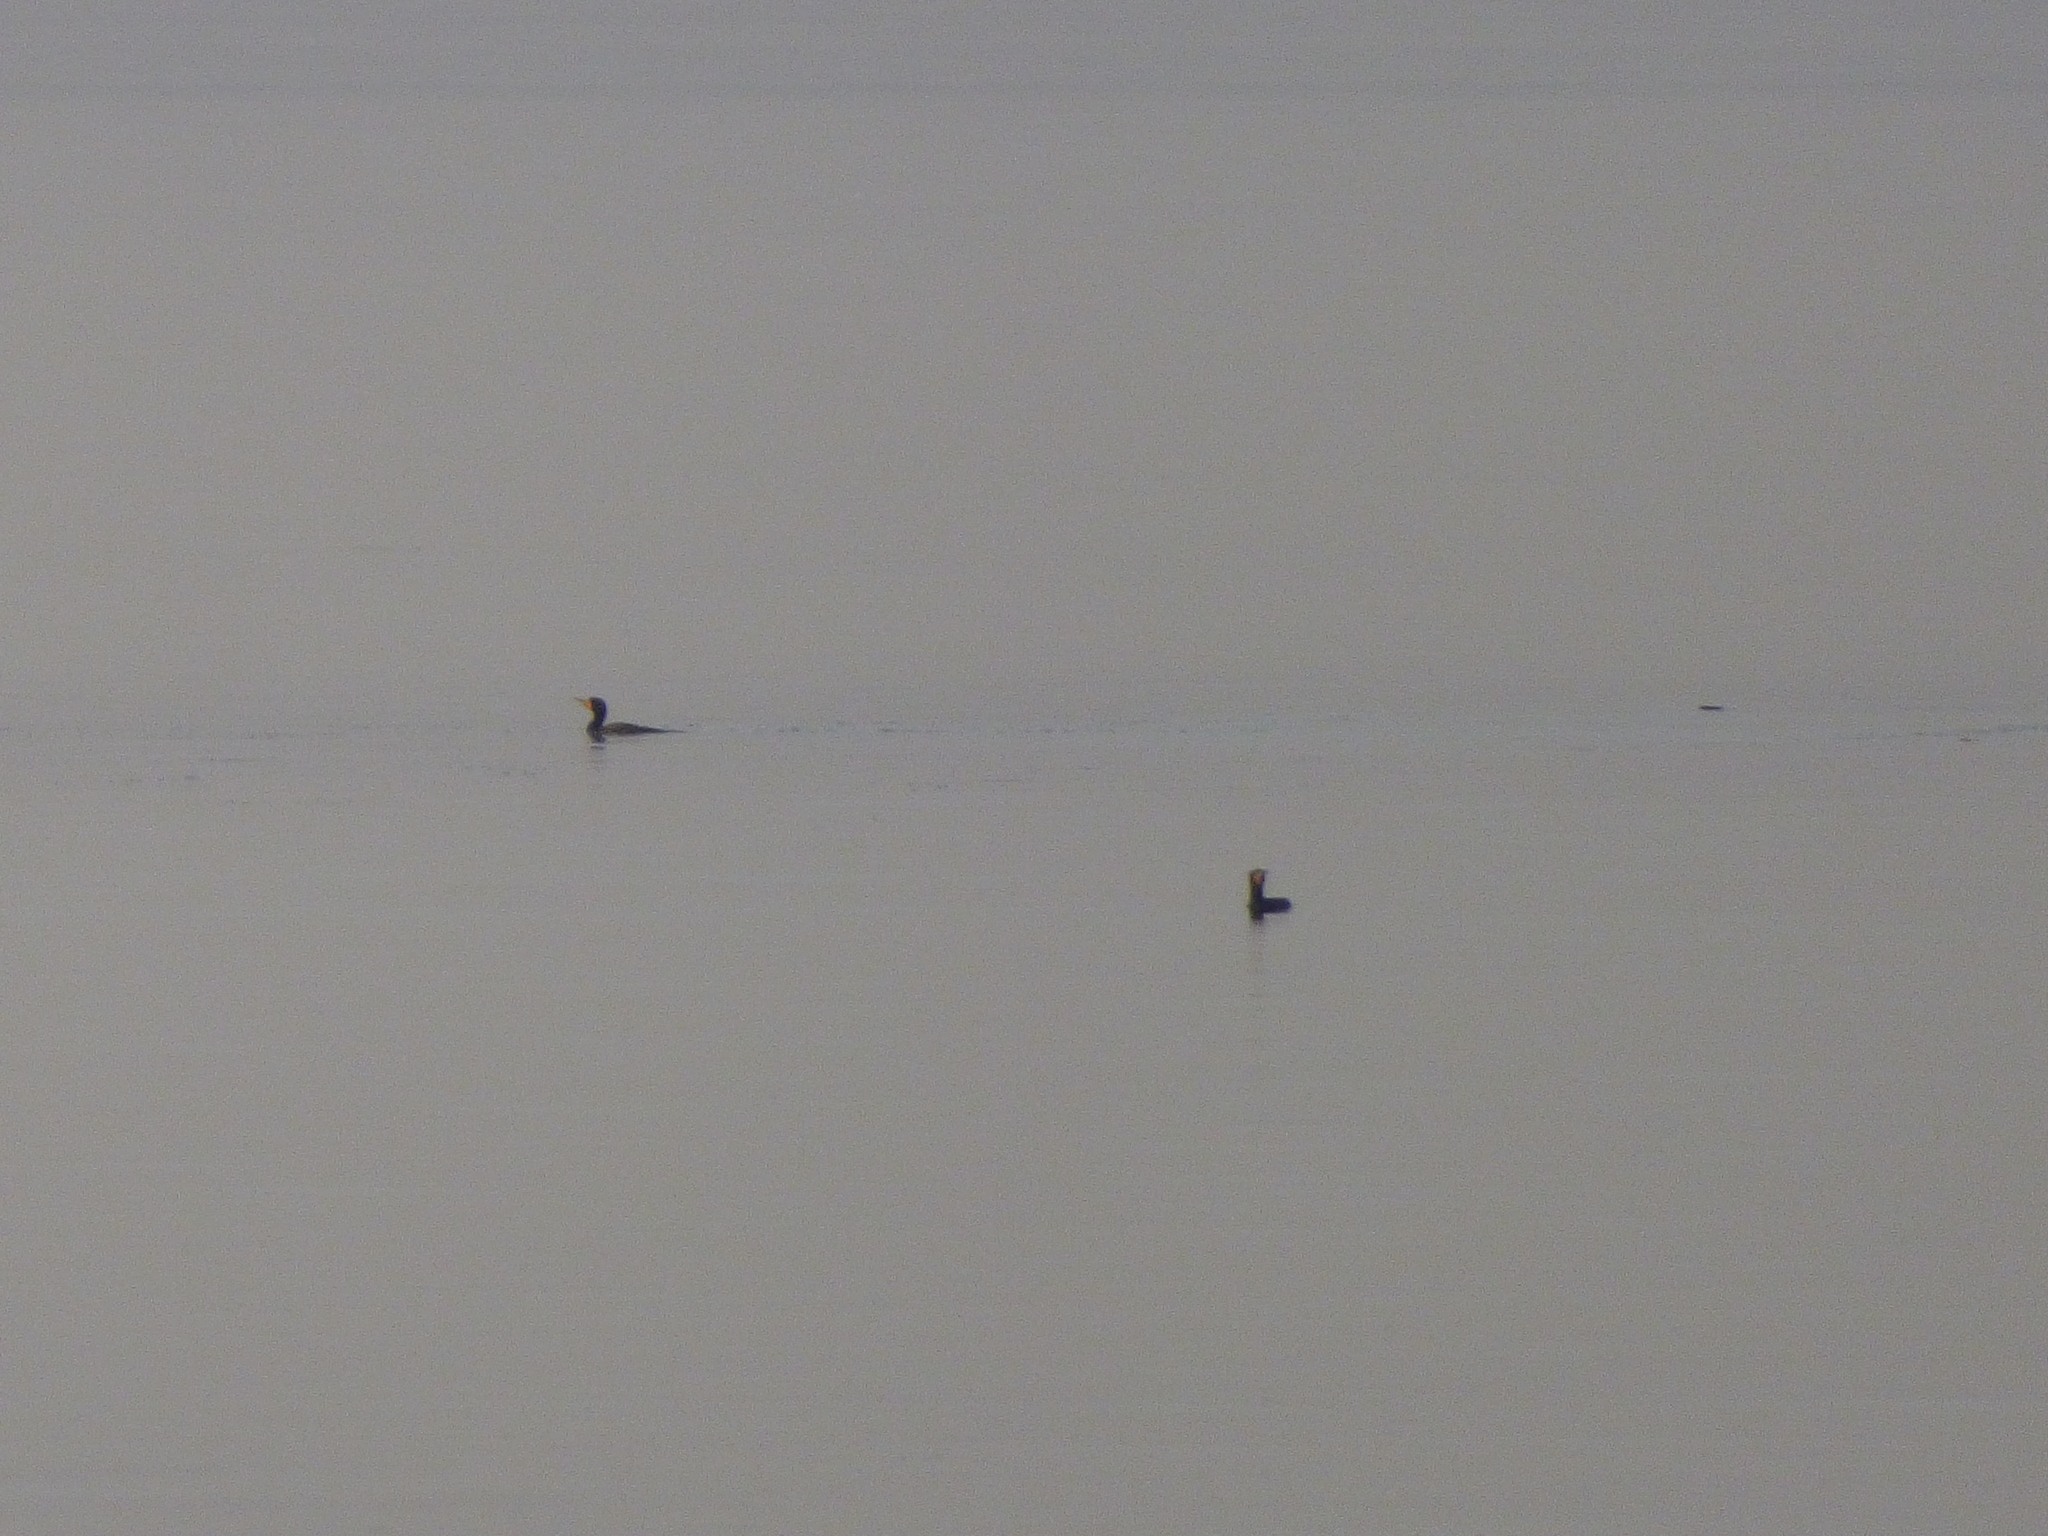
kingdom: Animalia
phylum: Chordata
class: Aves
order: Suliformes
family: Phalacrocoracidae
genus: Phalacrocorax
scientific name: Phalacrocorax auritus
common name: Double-crested cormorant
